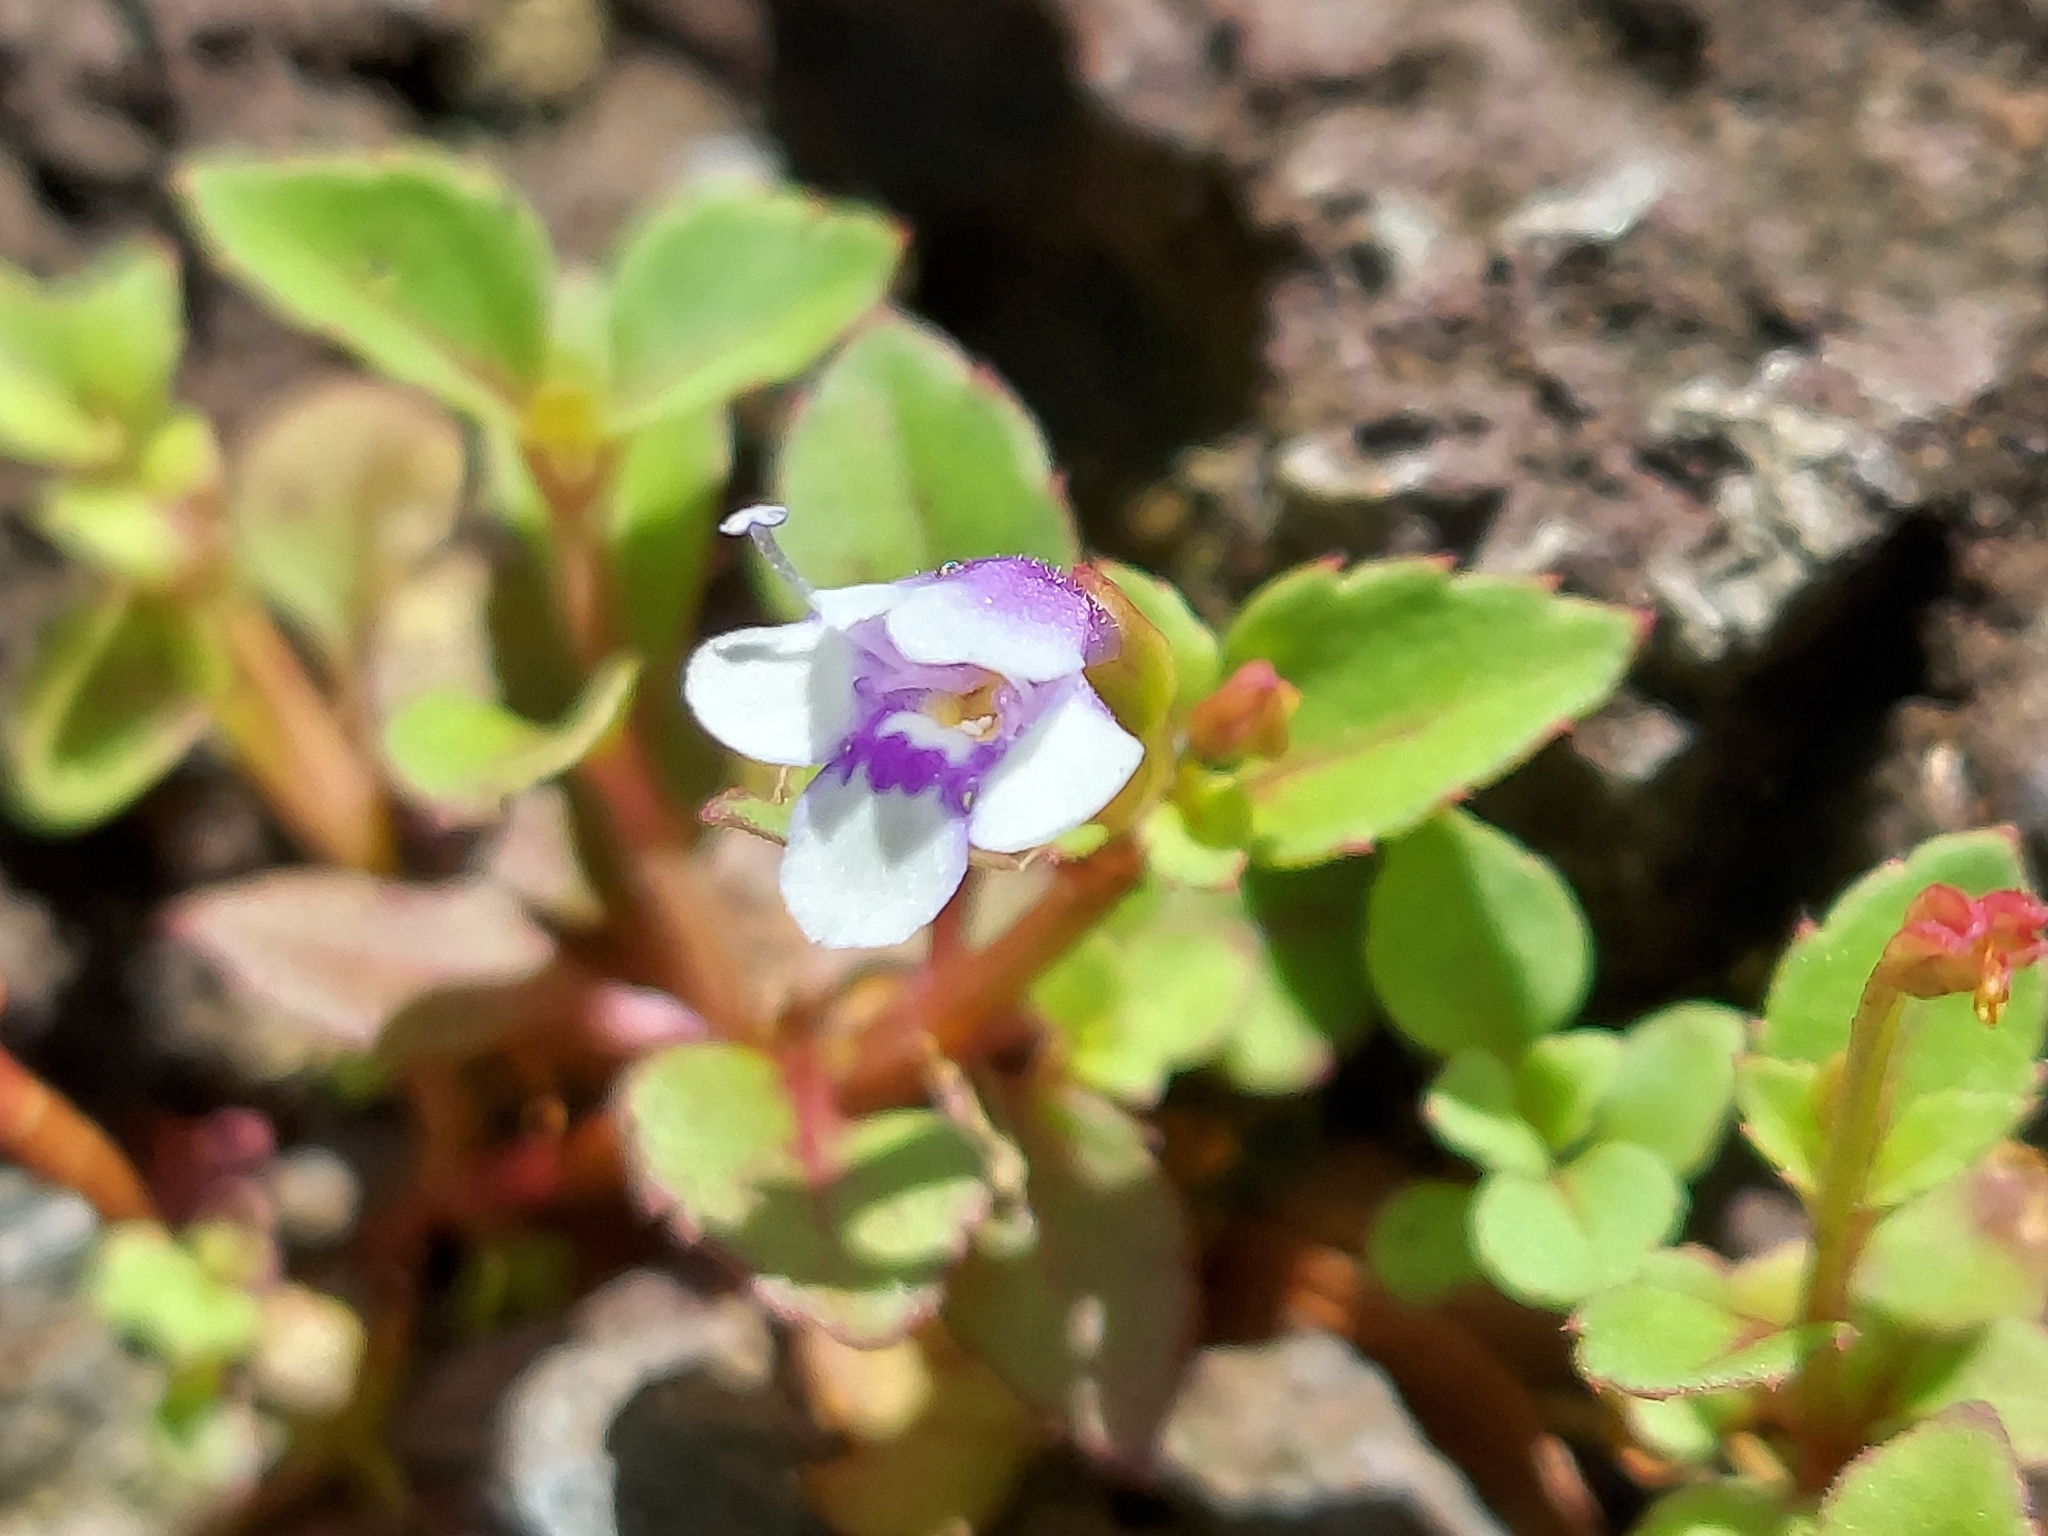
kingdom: Plantae
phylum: Tracheophyta
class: Magnoliopsida
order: Lamiales
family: Linderniaceae
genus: Torenia
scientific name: Torenia crustacea
